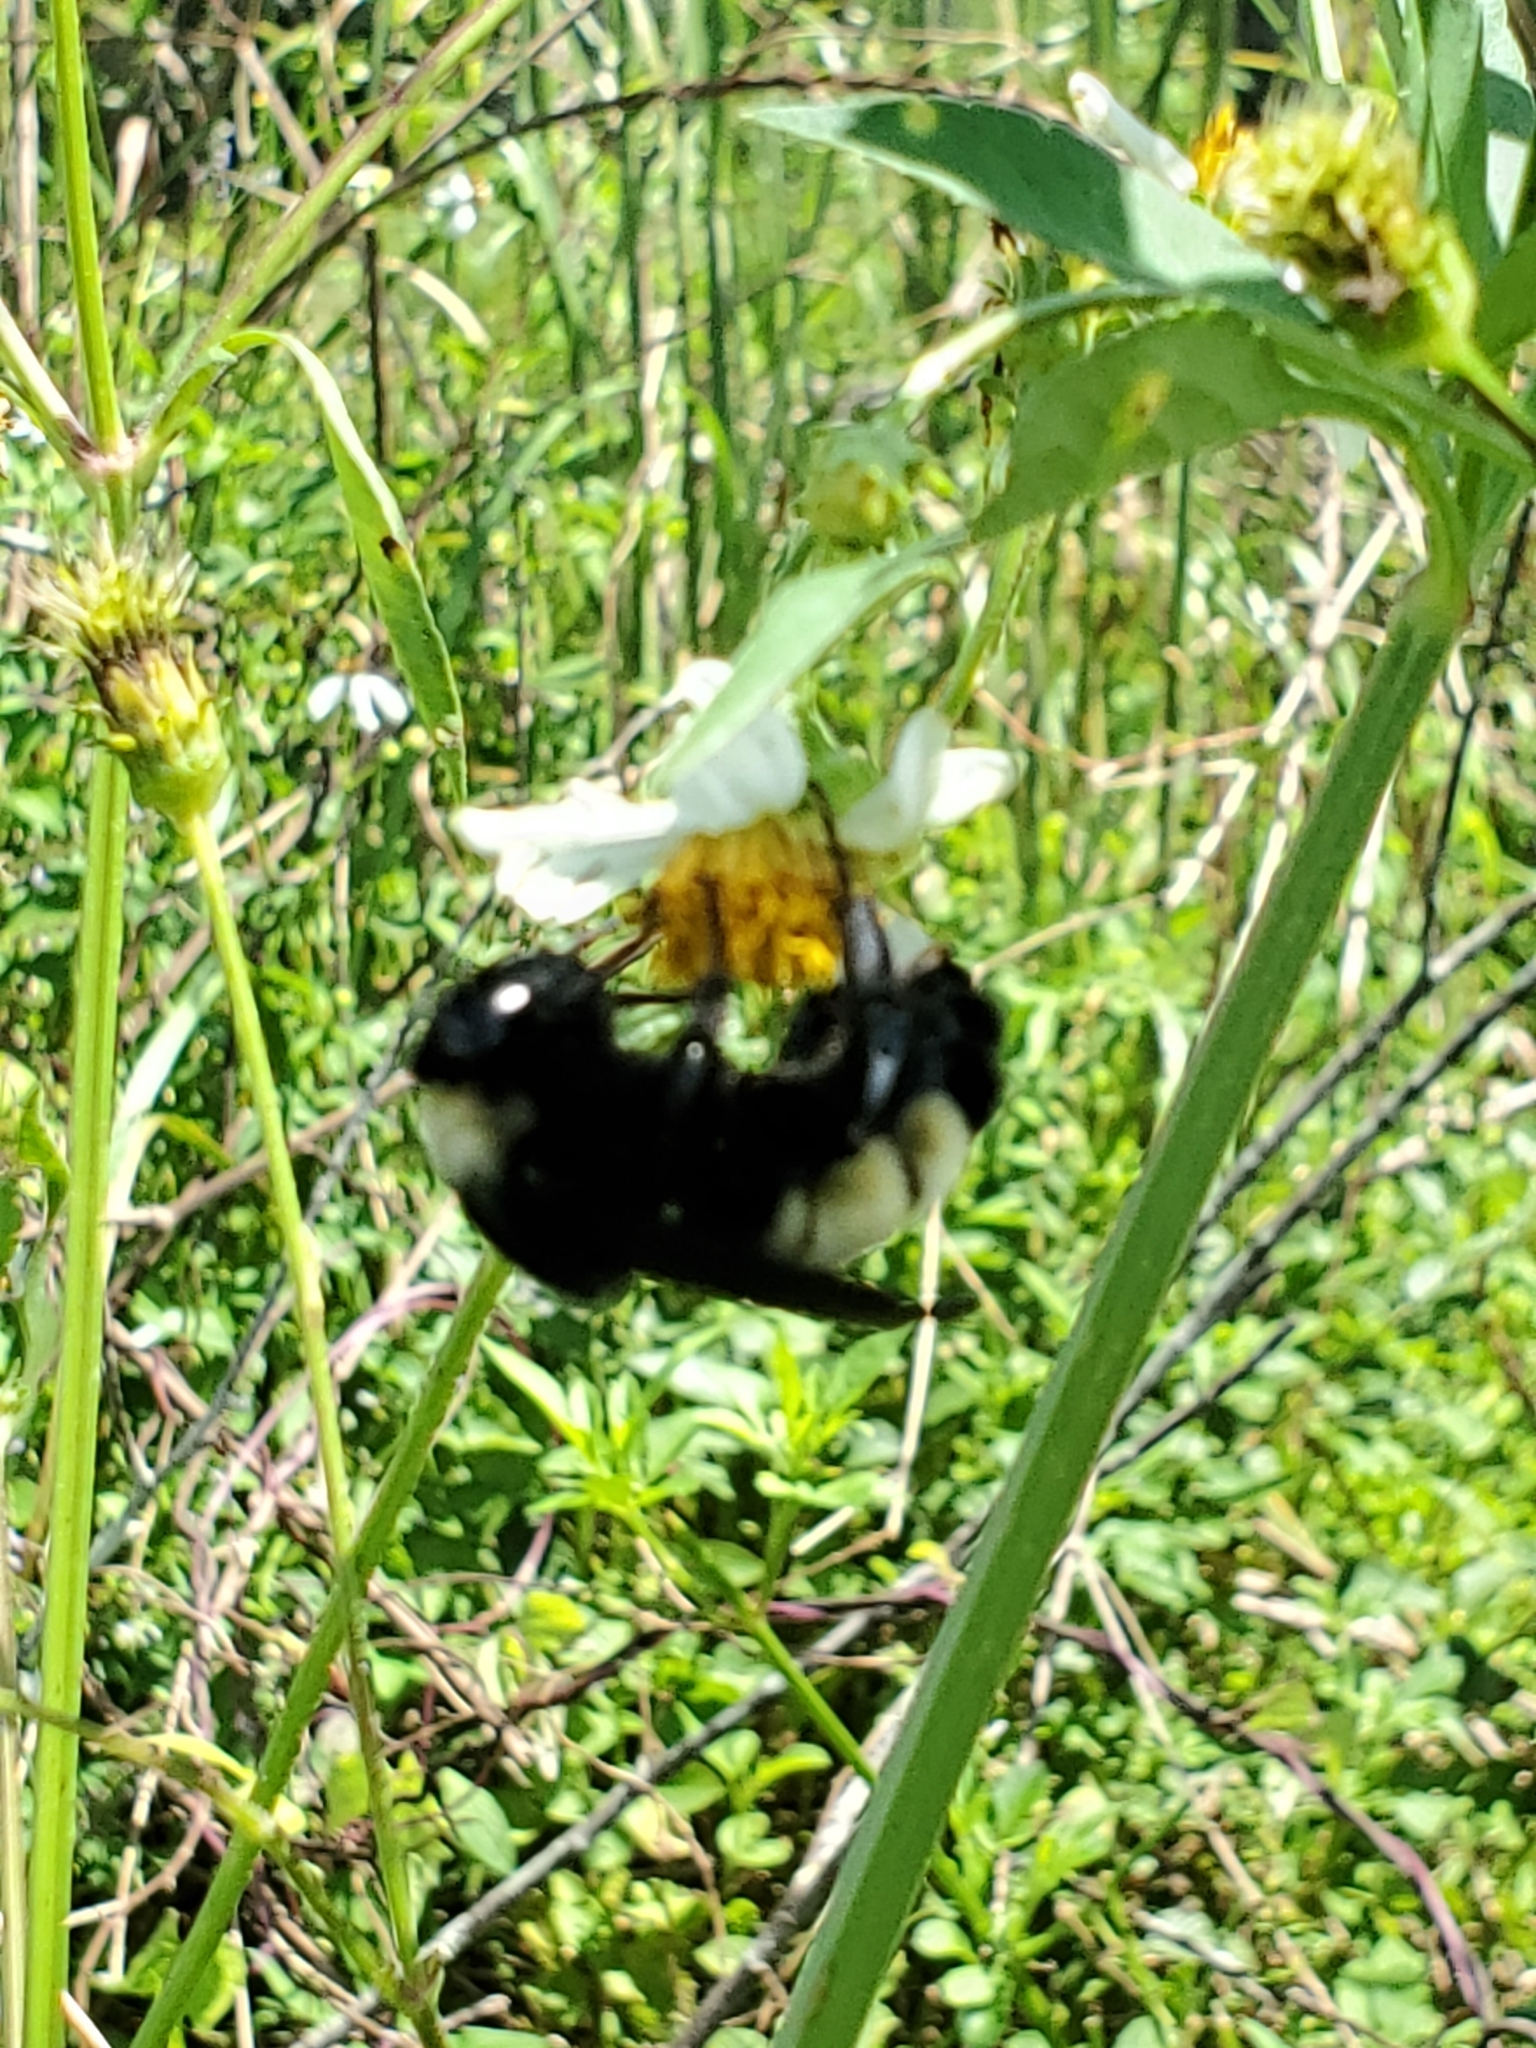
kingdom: Animalia
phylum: Arthropoda
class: Insecta
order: Hymenoptera
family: Apidae
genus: Bombus
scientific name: Bombus pensylvanicus
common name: Bumble bee
